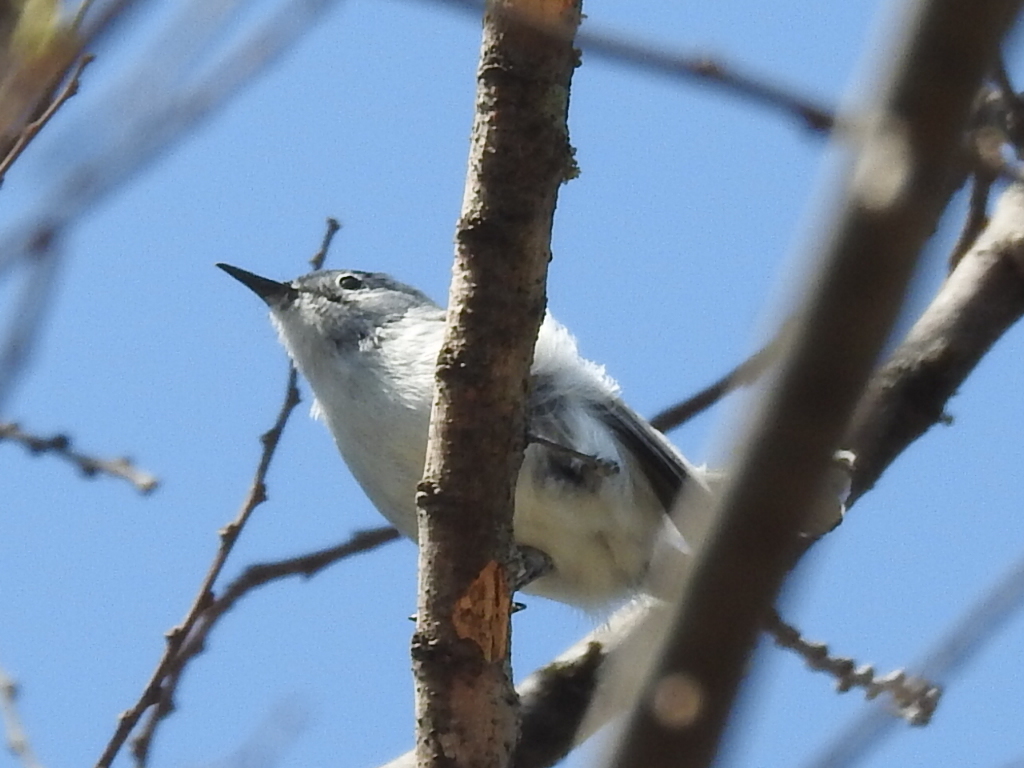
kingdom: Animalia
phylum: Chordata
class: Aves
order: Passeriformes
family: Polioptilidae
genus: Polioptila
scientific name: Polioptila caerulea
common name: Blue-gray gnatcatcher
